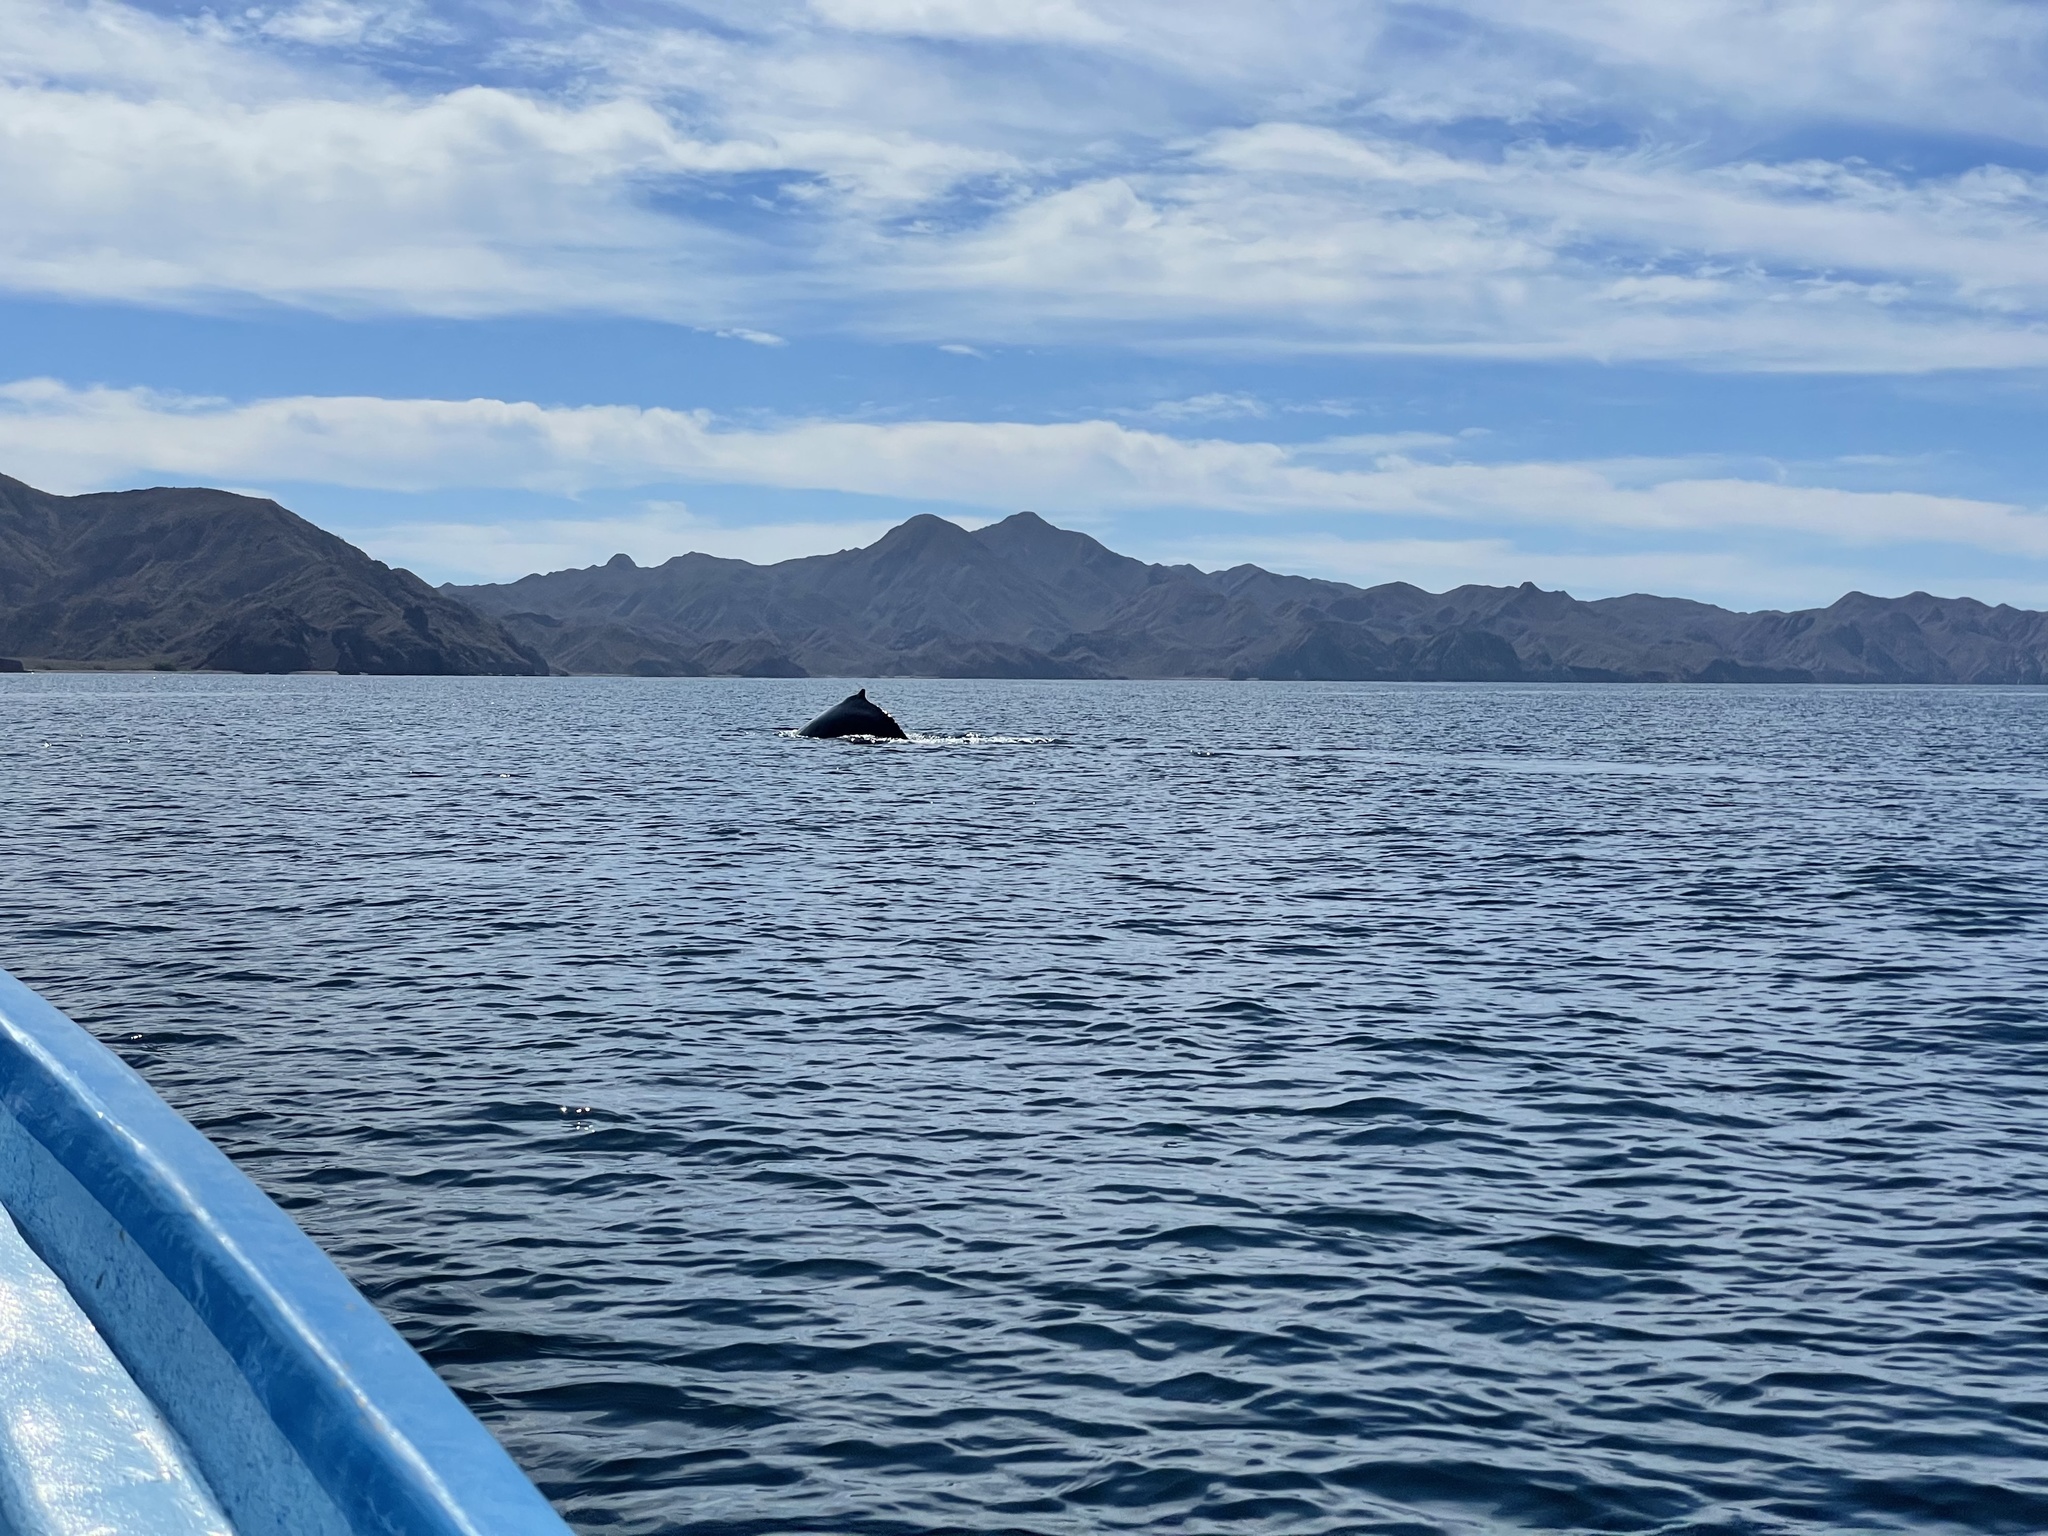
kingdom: Animalia
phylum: Chordata
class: Mammalia
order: Cetacea
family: Balaenopteridae
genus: Megaptera
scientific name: Megaptera novaeangliae
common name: Humpback whale
